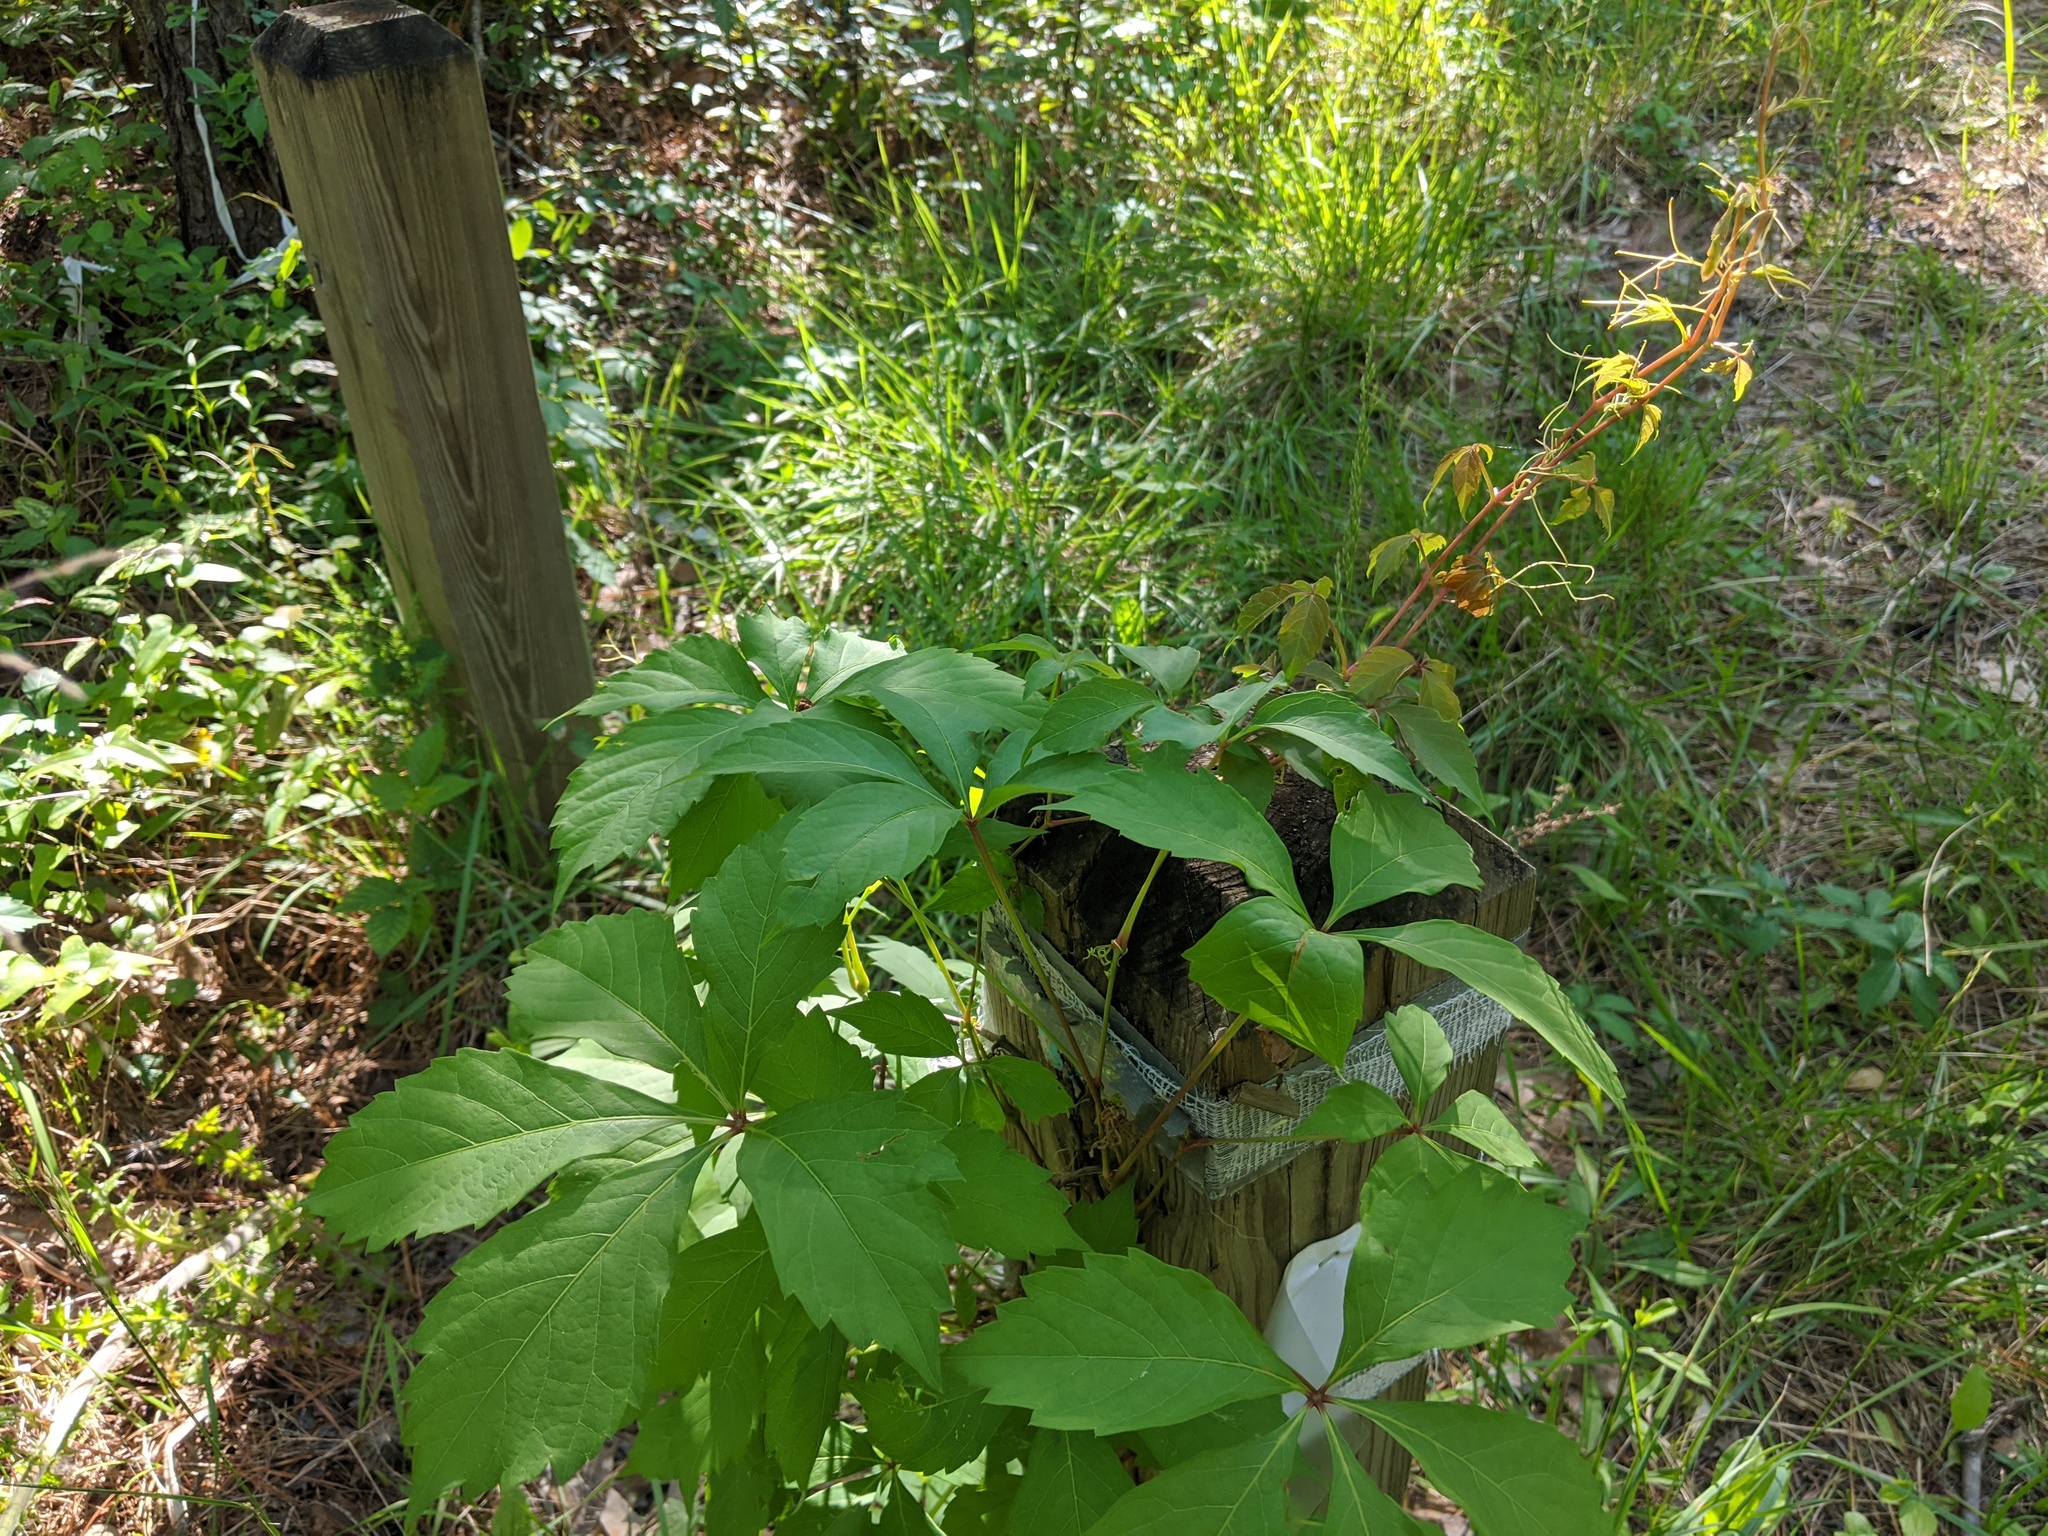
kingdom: Plantae
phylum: Tracheophyta
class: Magnoliopsida
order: Vitales
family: Vitaceae
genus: Parthenocissus
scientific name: Parthenocissus quinquefolia
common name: Virginia-creeper
